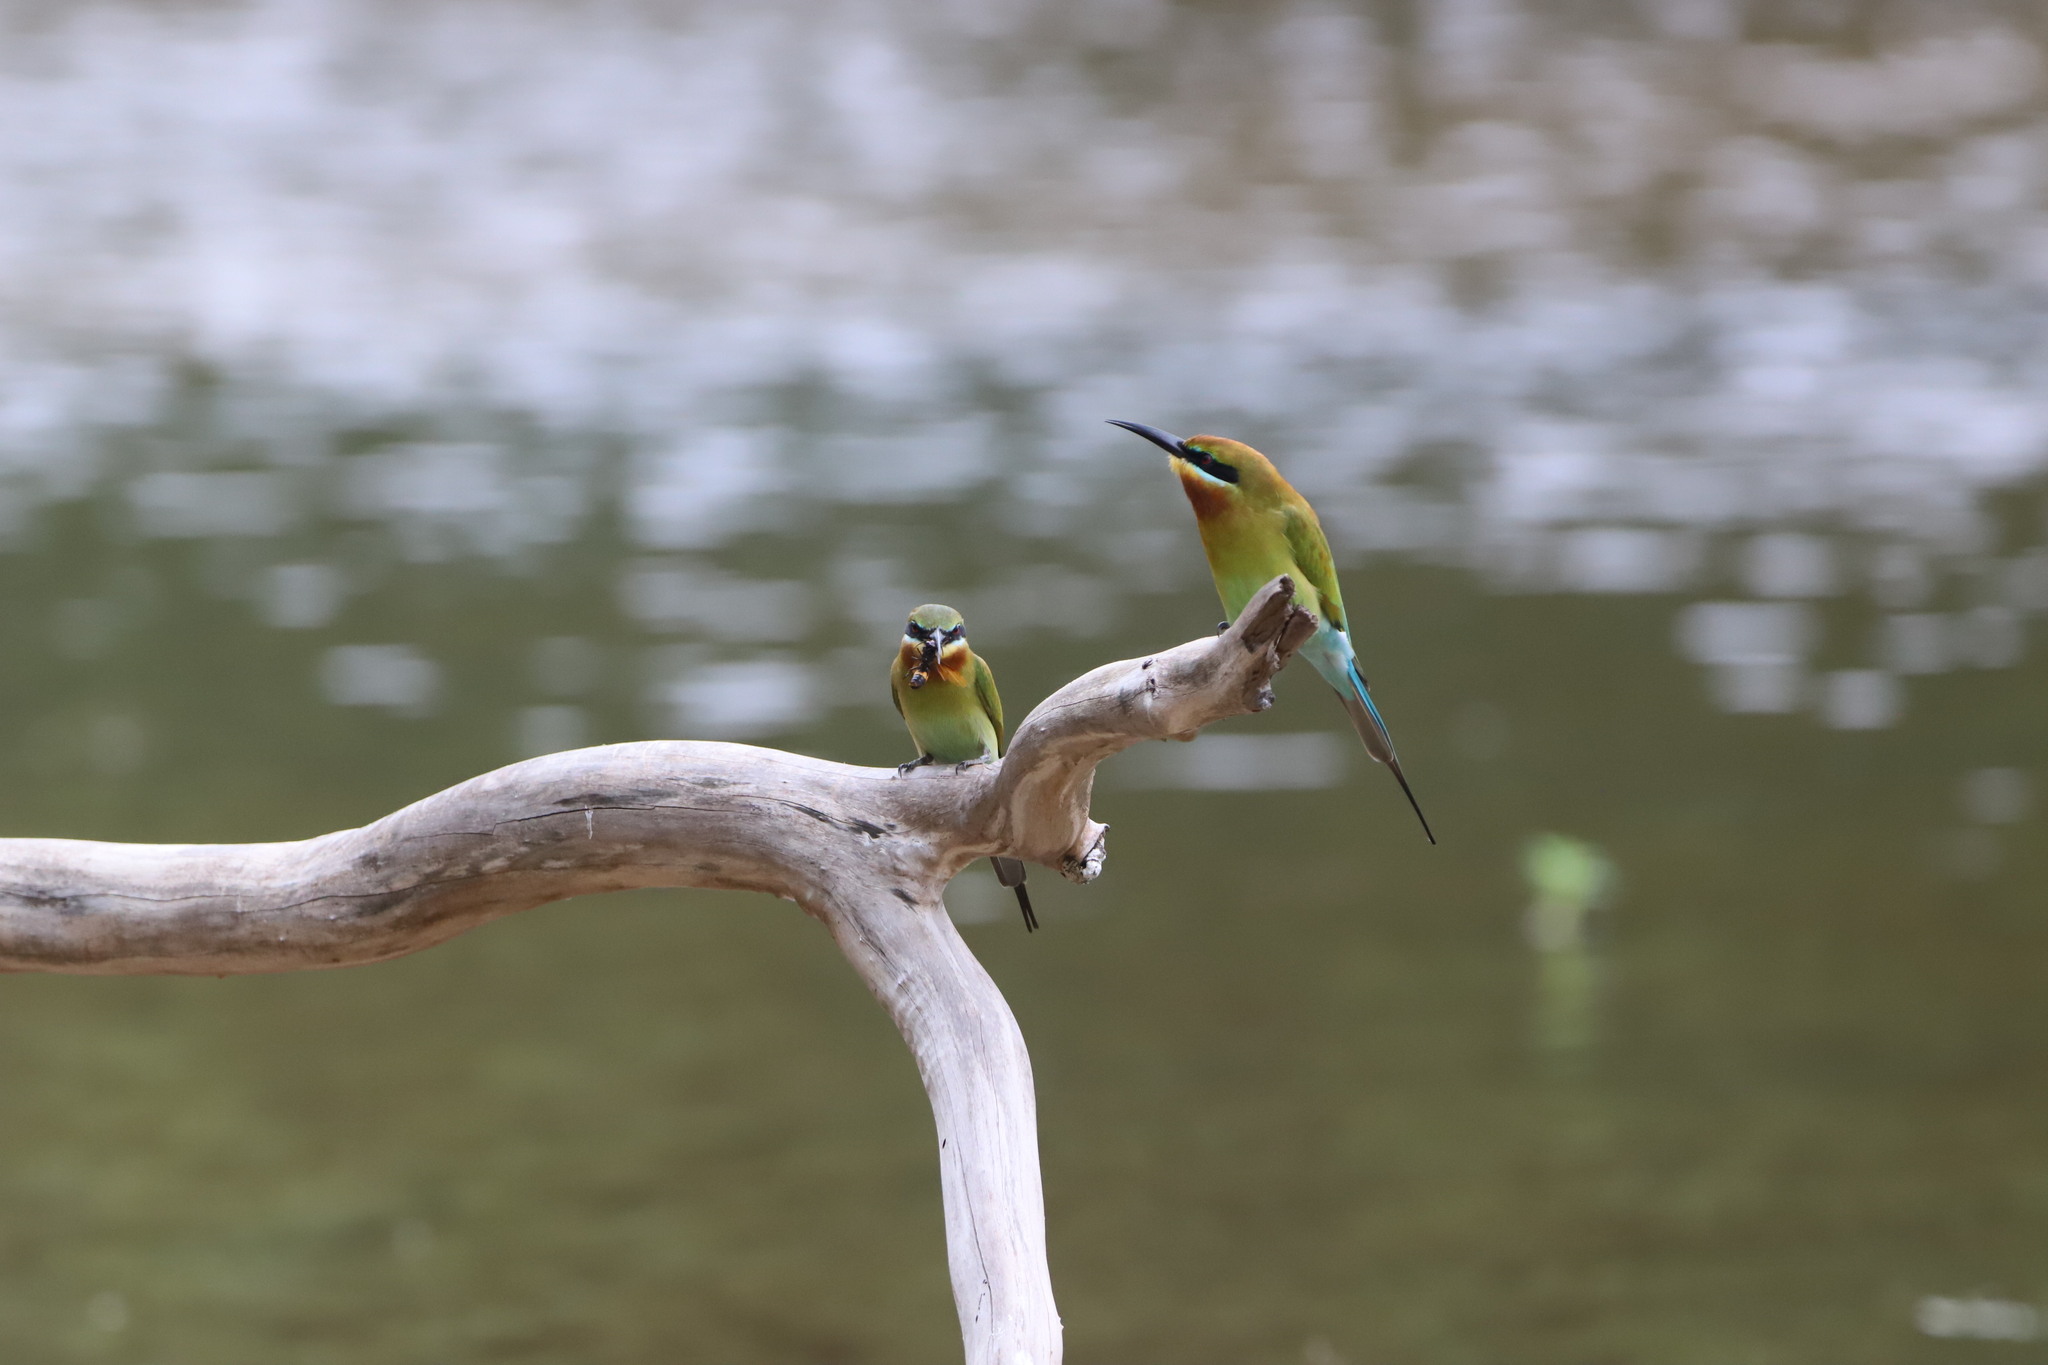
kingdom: Animalia
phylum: Chordata
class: Aves
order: Coraciiformes
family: Meropidae
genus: Merops
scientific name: Merops philippinus
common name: Blue-tailed bee-eater
